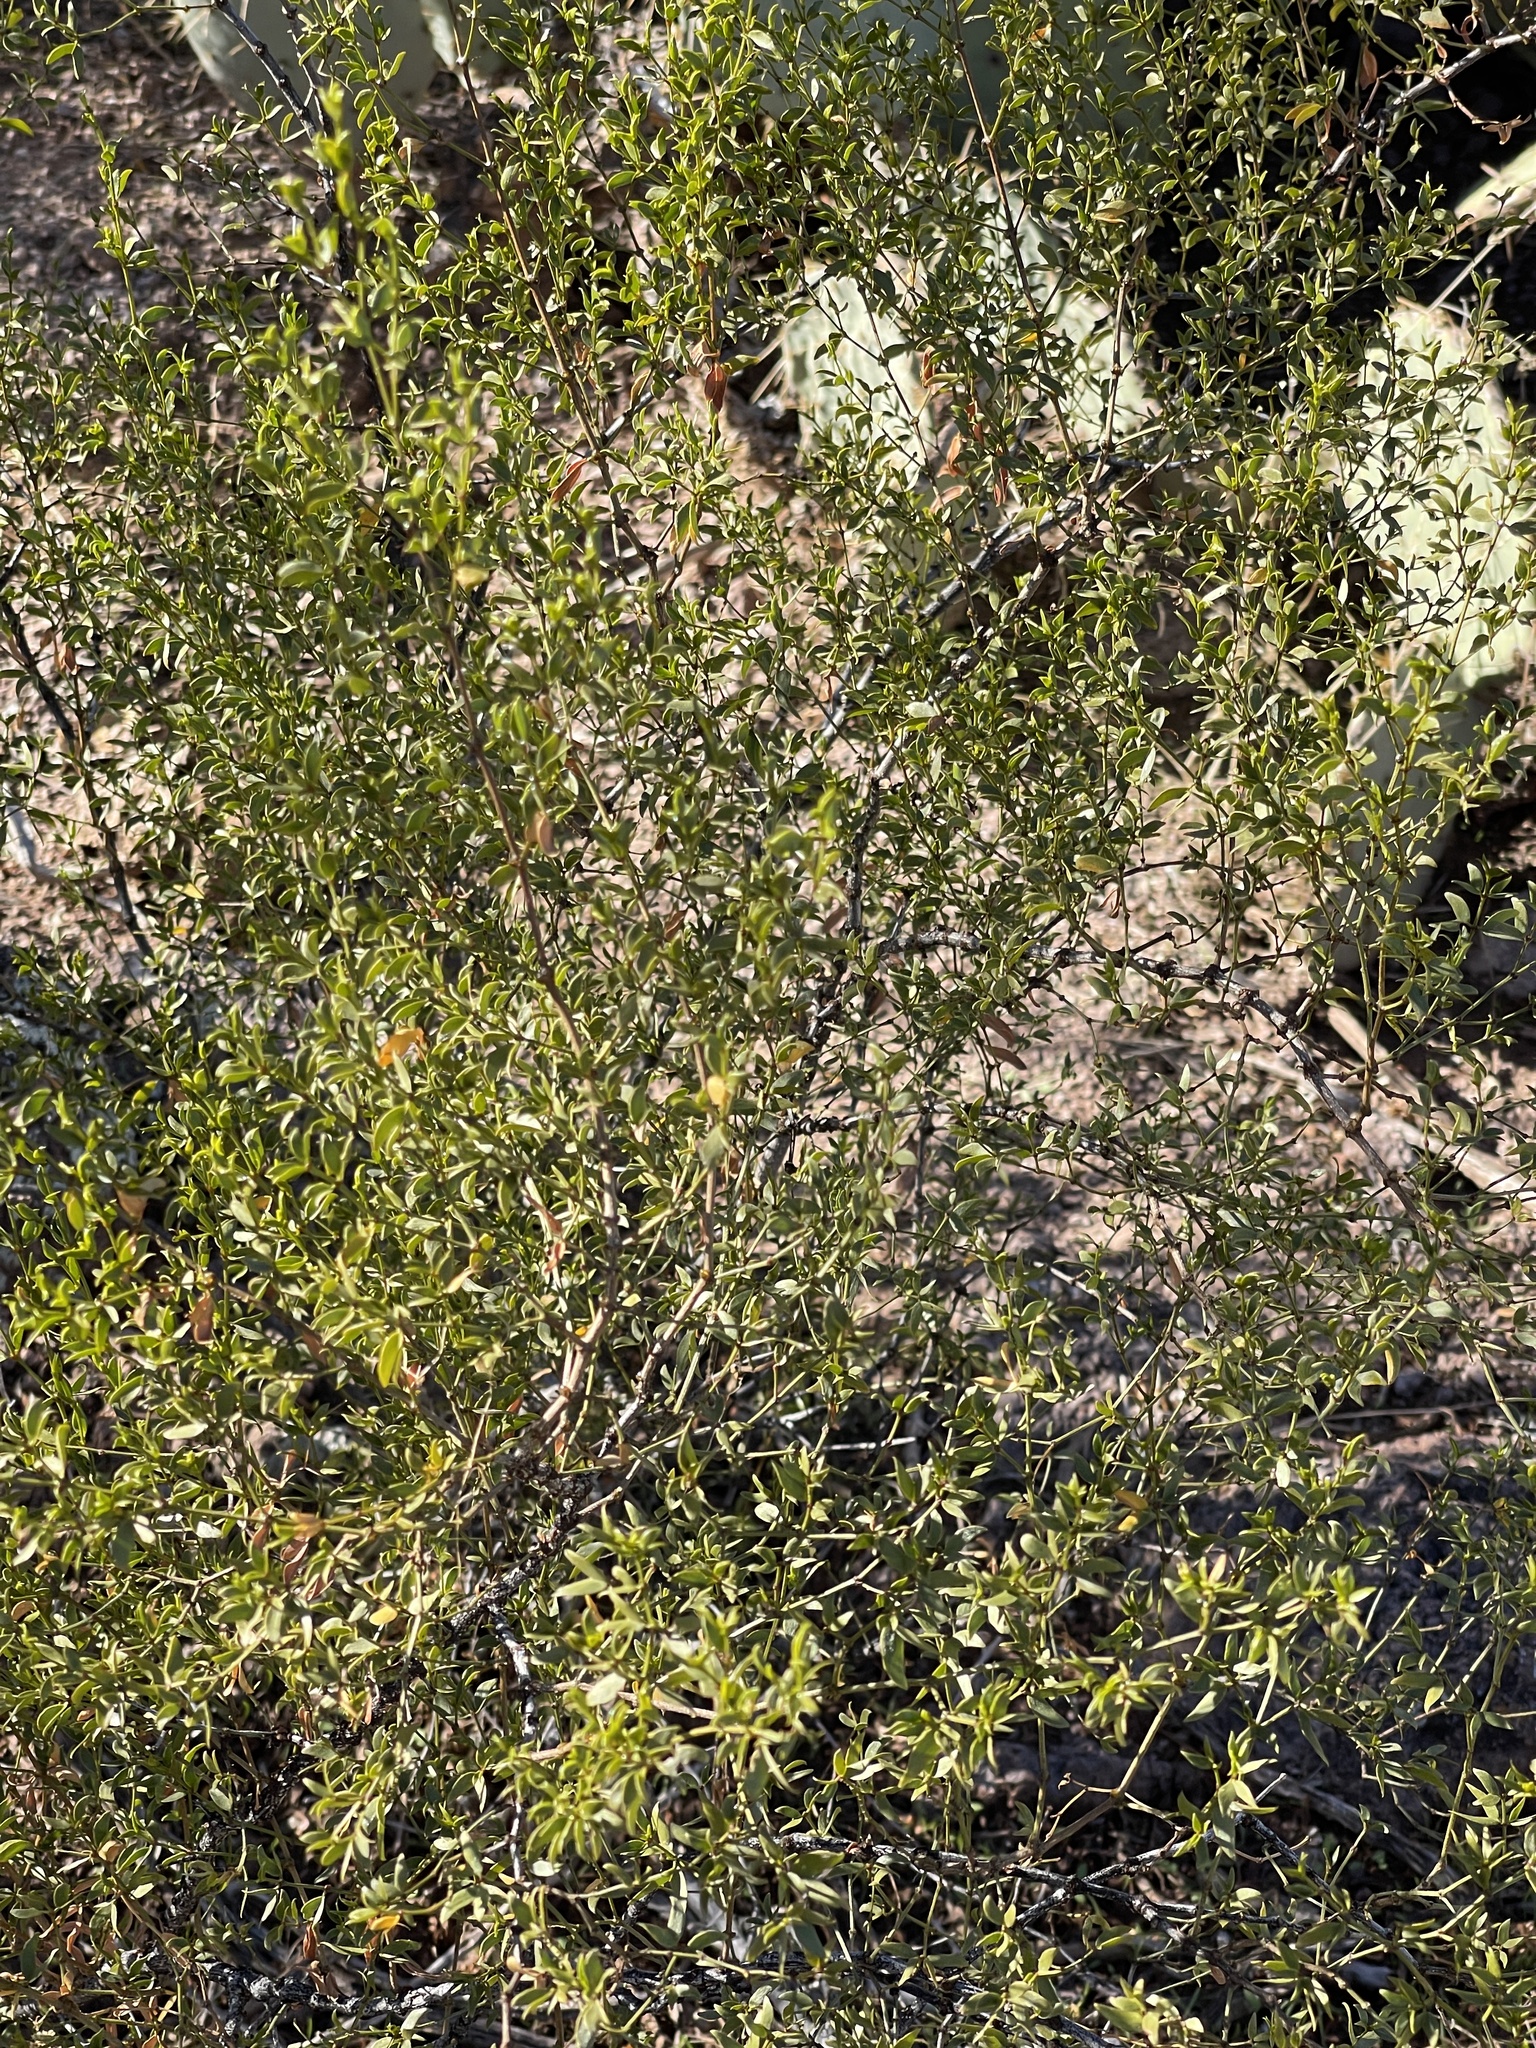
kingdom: Plantae
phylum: Tracheophyta
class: Magnoliopsida
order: Zygophyllales
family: Zygophyllaceae
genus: Larrea
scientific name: Larrea tridentata
